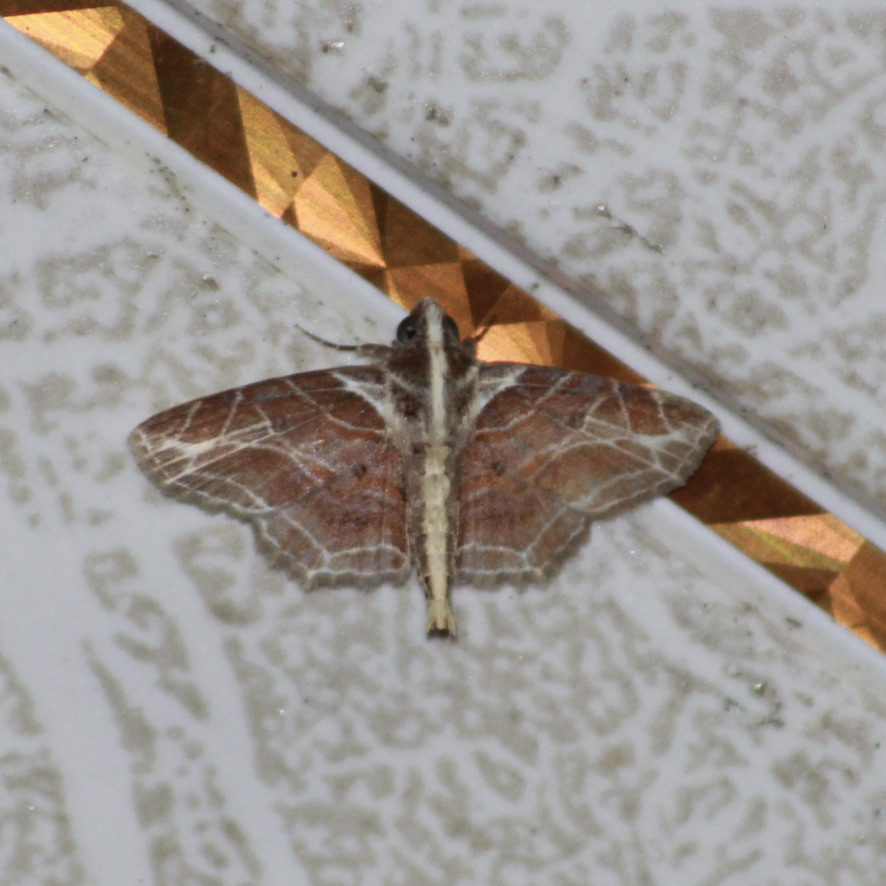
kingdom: Animalia
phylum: Arthropoda
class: Insecta
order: Lepidoptera
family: Erebidae
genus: Dolichosomastis
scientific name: Dolichosomastis dorsilinea
